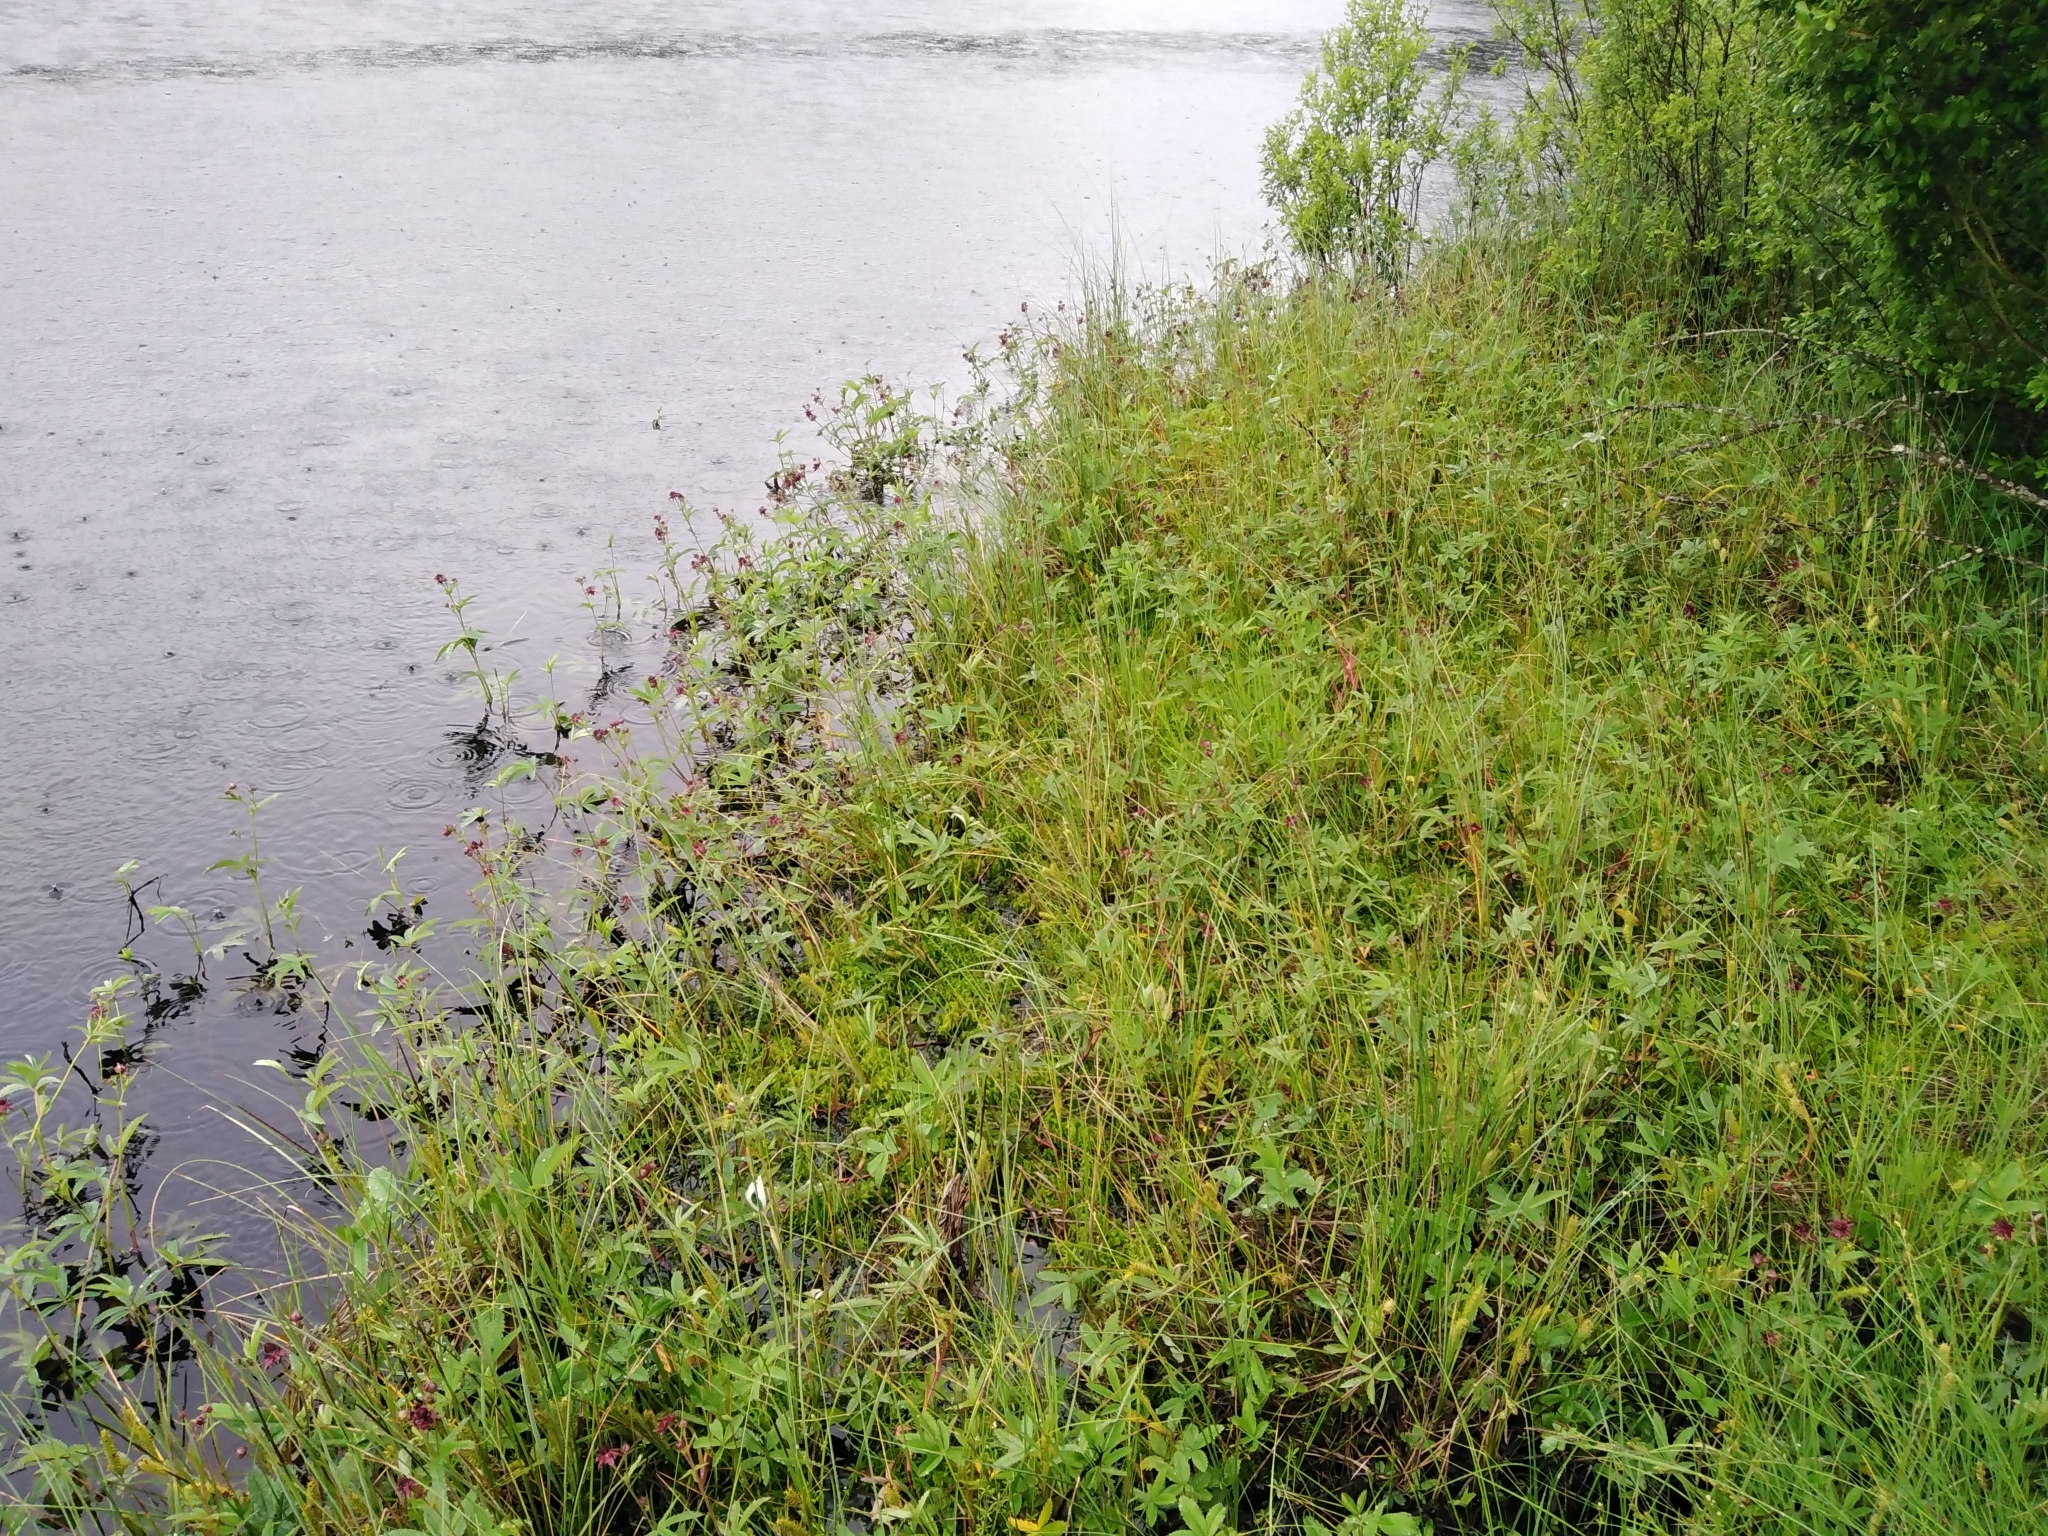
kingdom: Plantae
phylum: Tracheophyta
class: Magnoliopsida
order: Rosales
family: Rosaceae
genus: Comarum
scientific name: Comarum palustre
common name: Marsh cinquefoil
